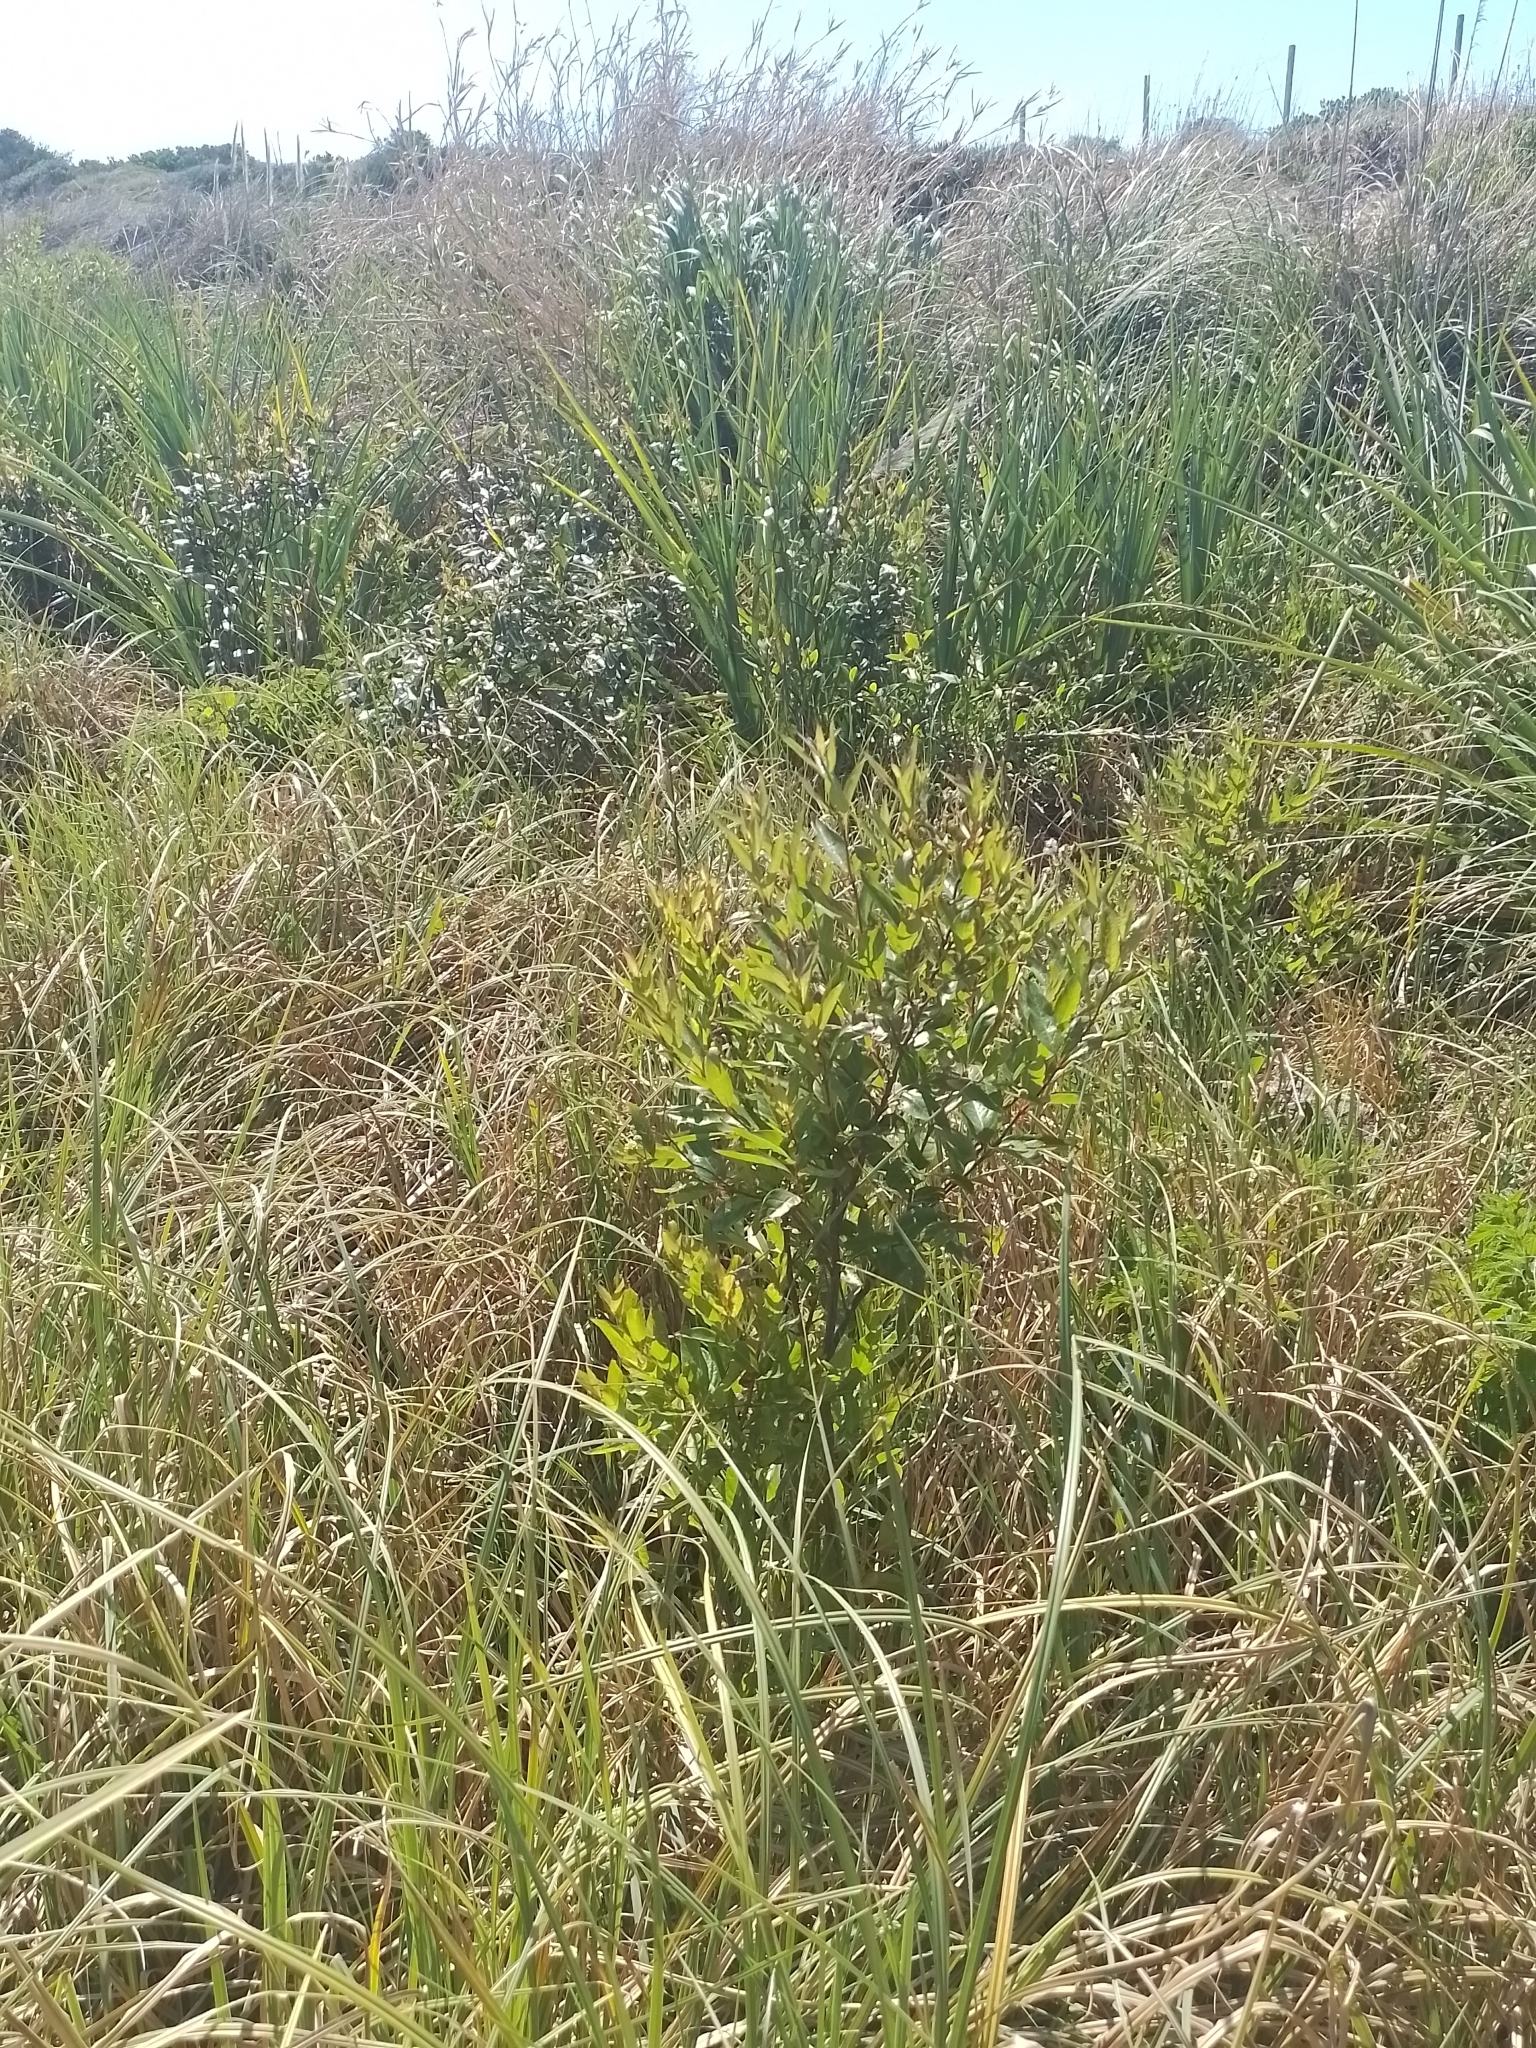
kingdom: Plantae
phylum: Tracheophyta
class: Magnoliopsida
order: Gentianales
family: Rubiaceae
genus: Cephalanthus
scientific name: Cephalanthus glabratus
